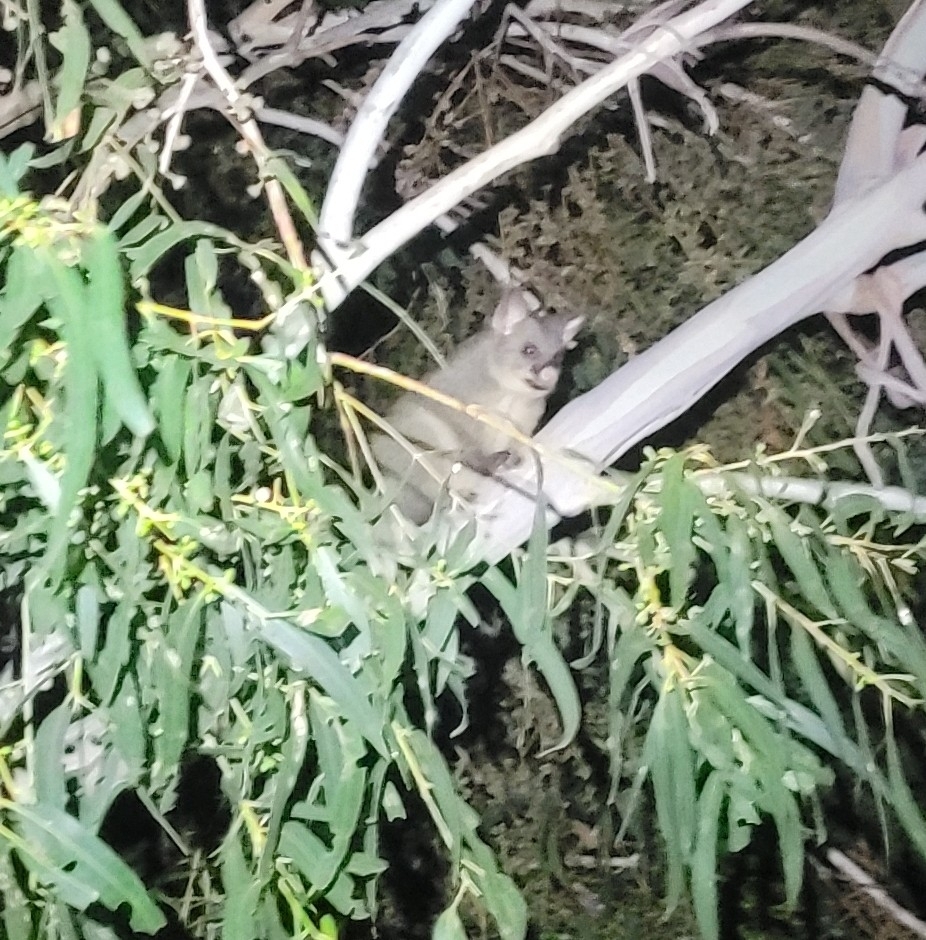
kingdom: Animalia
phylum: Chordata
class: Mammalia
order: Diprotodontia
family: Phalangeridae
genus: Trichosurus
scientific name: Trichosurus vulpecula
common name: Common brushtail
